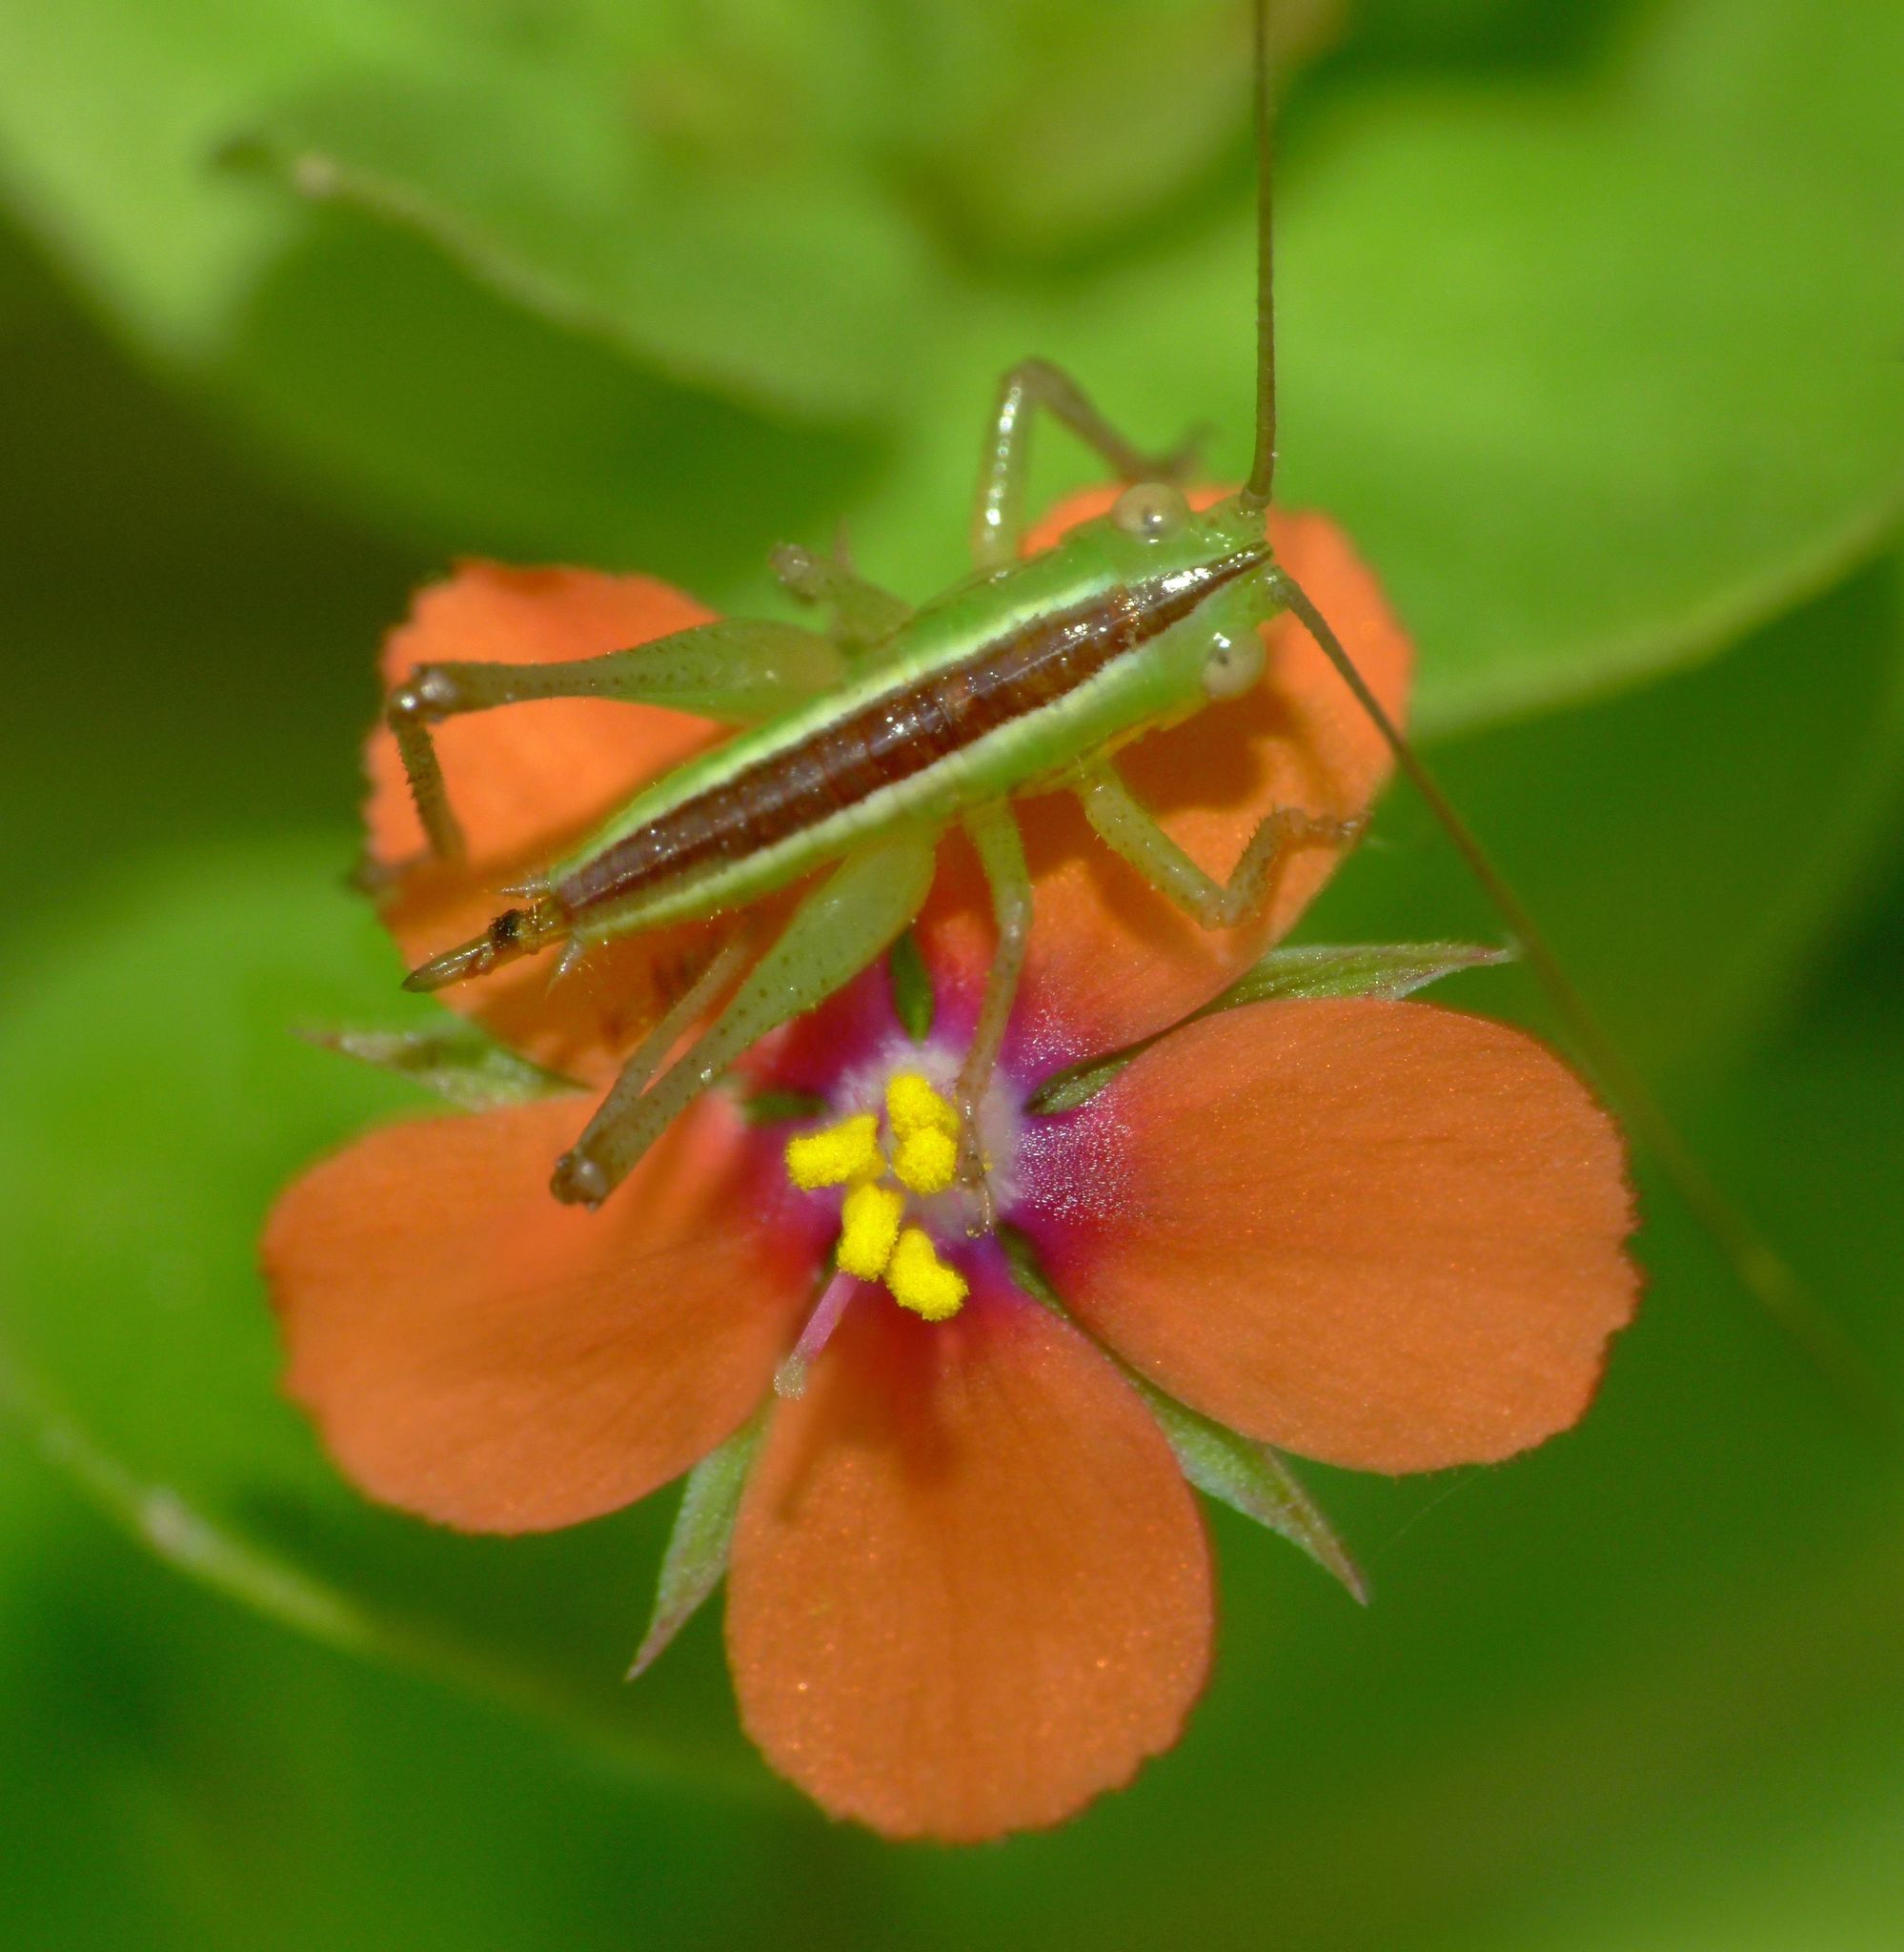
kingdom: Animalia
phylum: Arthropoda
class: Insecta
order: Orthoptera
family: Tettigoniidae
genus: Conocephalus
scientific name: Conocephalus bilineatus
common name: Small meadow katydid
